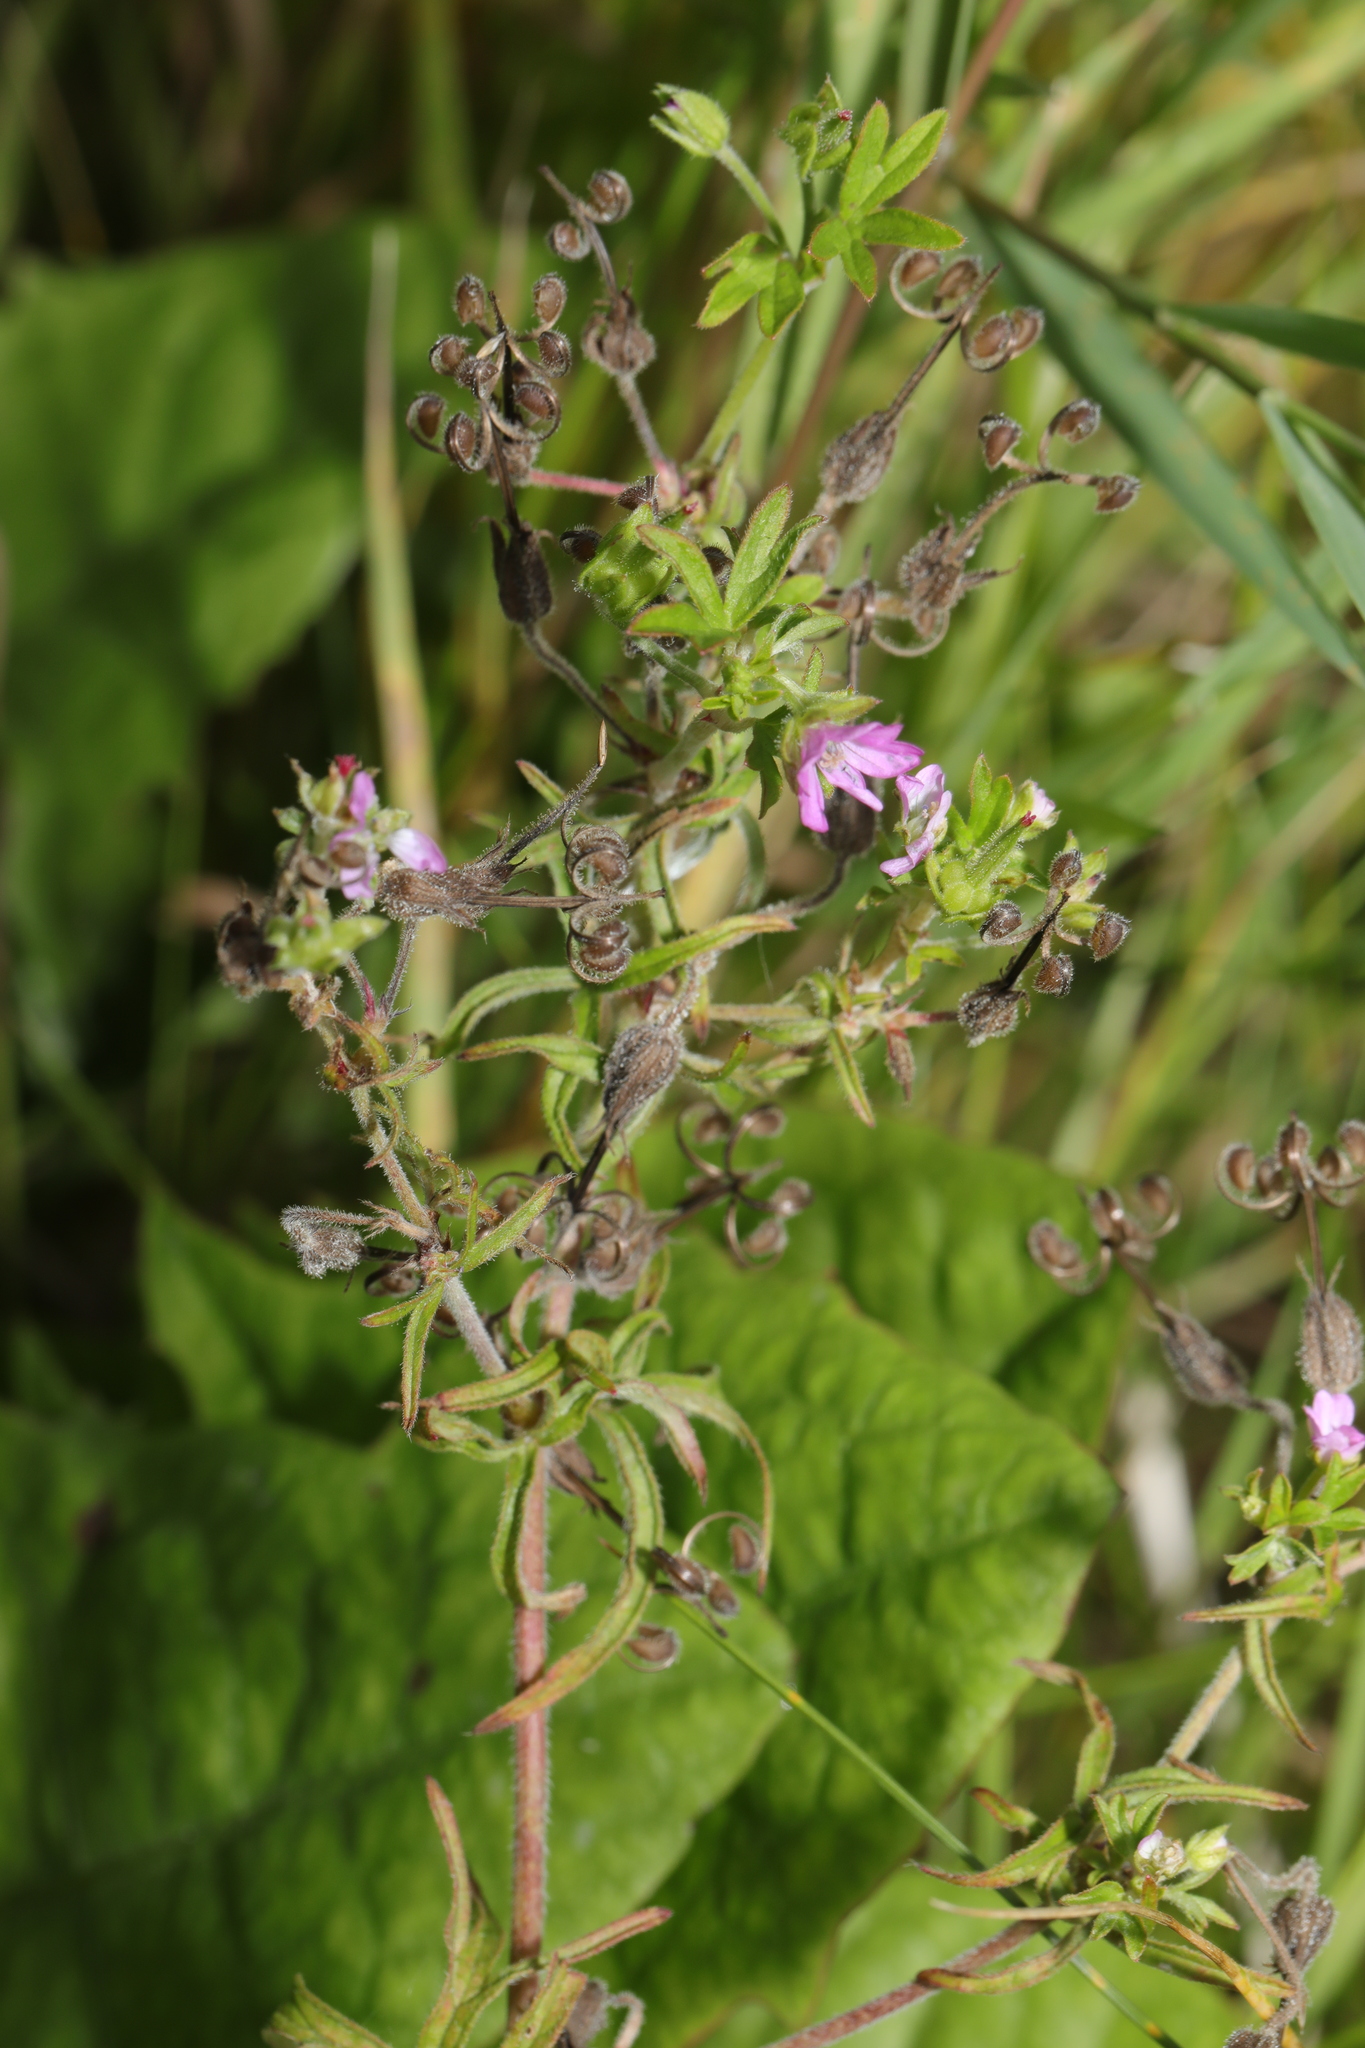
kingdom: Plantae
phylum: Tracheophyta
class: Magnoliopsida
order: Geraniales
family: Geraniaceae
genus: Geranium
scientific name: Geranium dissectum
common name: Cut-leaved crane's-bill
